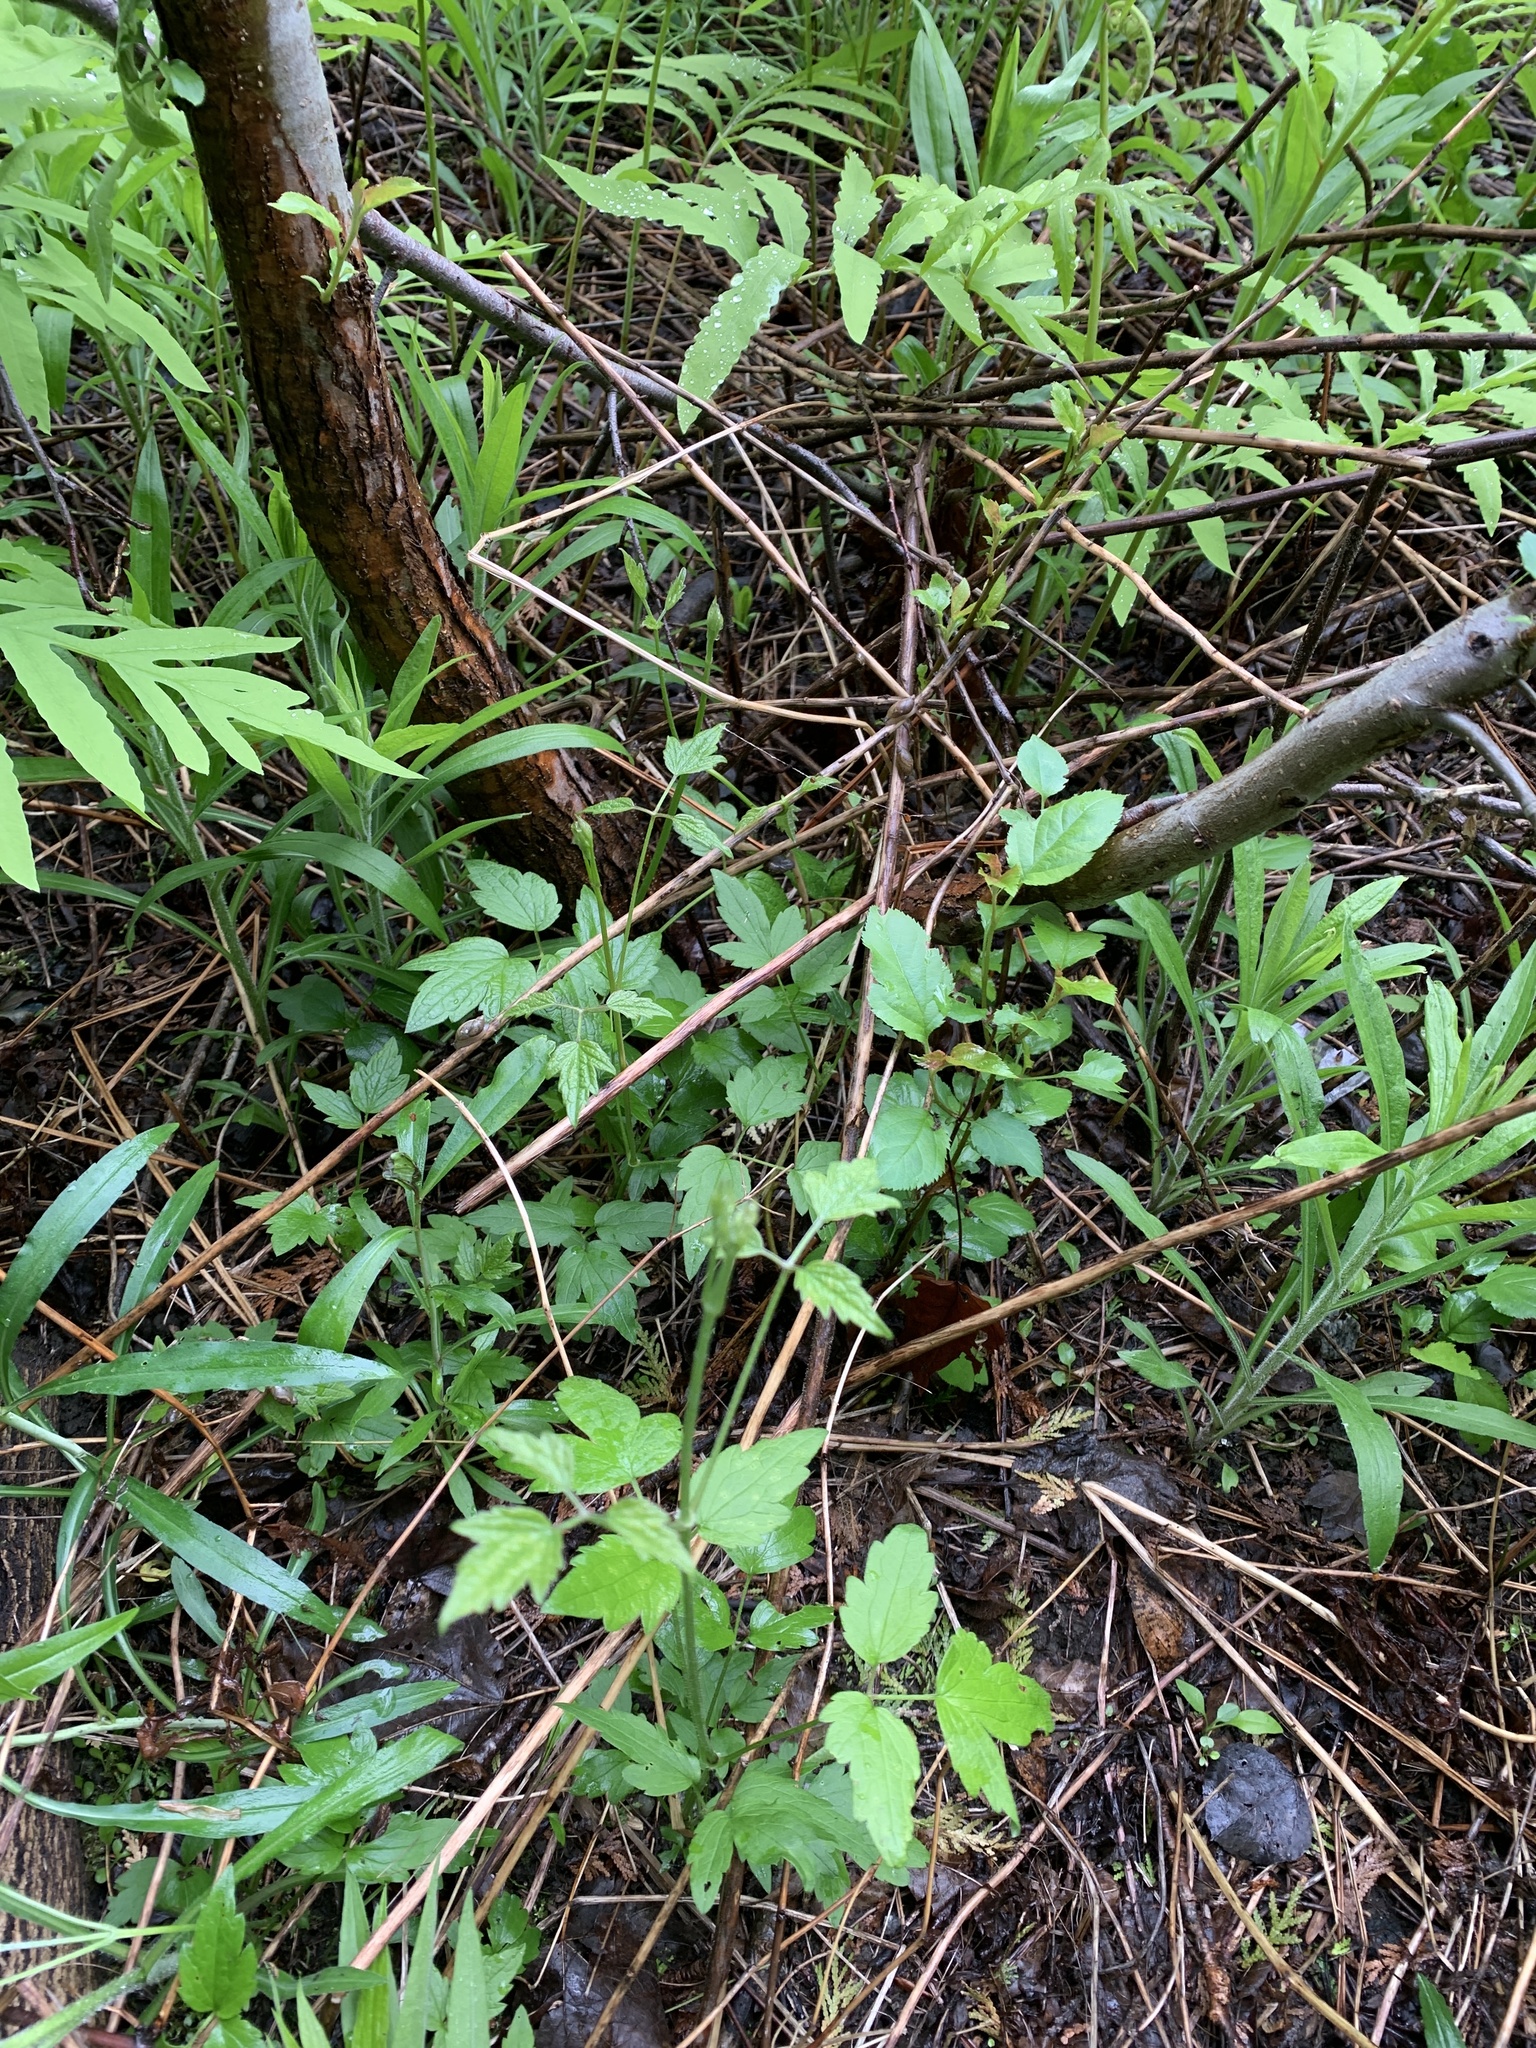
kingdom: Plantae
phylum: Tracheophyta
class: Magnoliopsida
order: Ranunculales
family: Ranunculaceae
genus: Clematis
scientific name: Clematis virginiana
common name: Virgin's-bower
